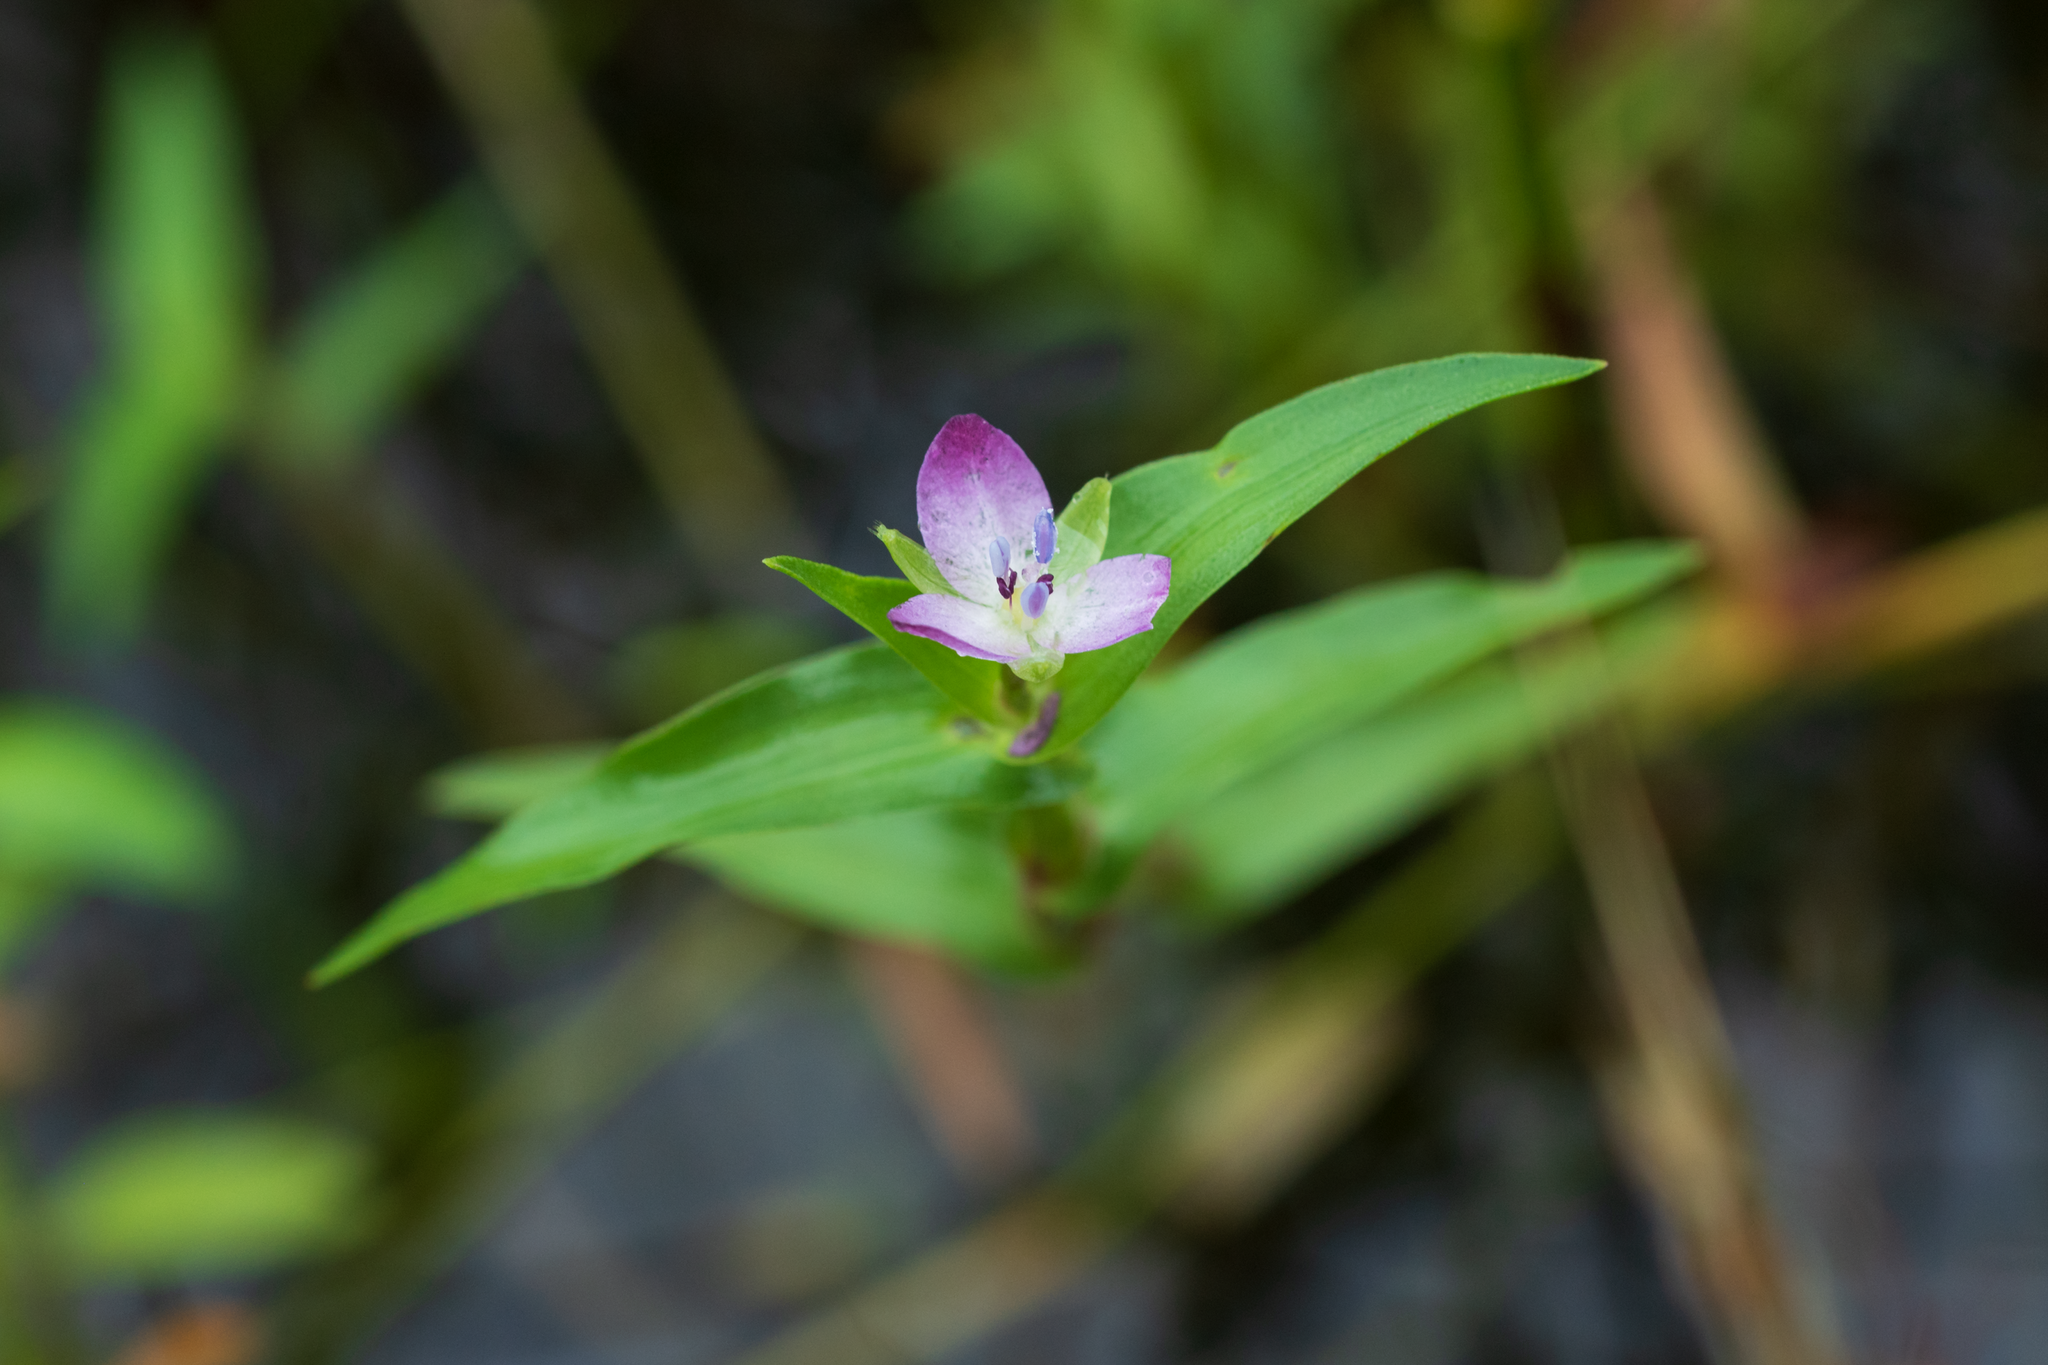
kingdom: Plantae
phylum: Tracheophyta
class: Liliopsida
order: Commelinales
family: Commelinaceae
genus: Murdannia
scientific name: Murdannia keisak
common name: Wartremoving herb
